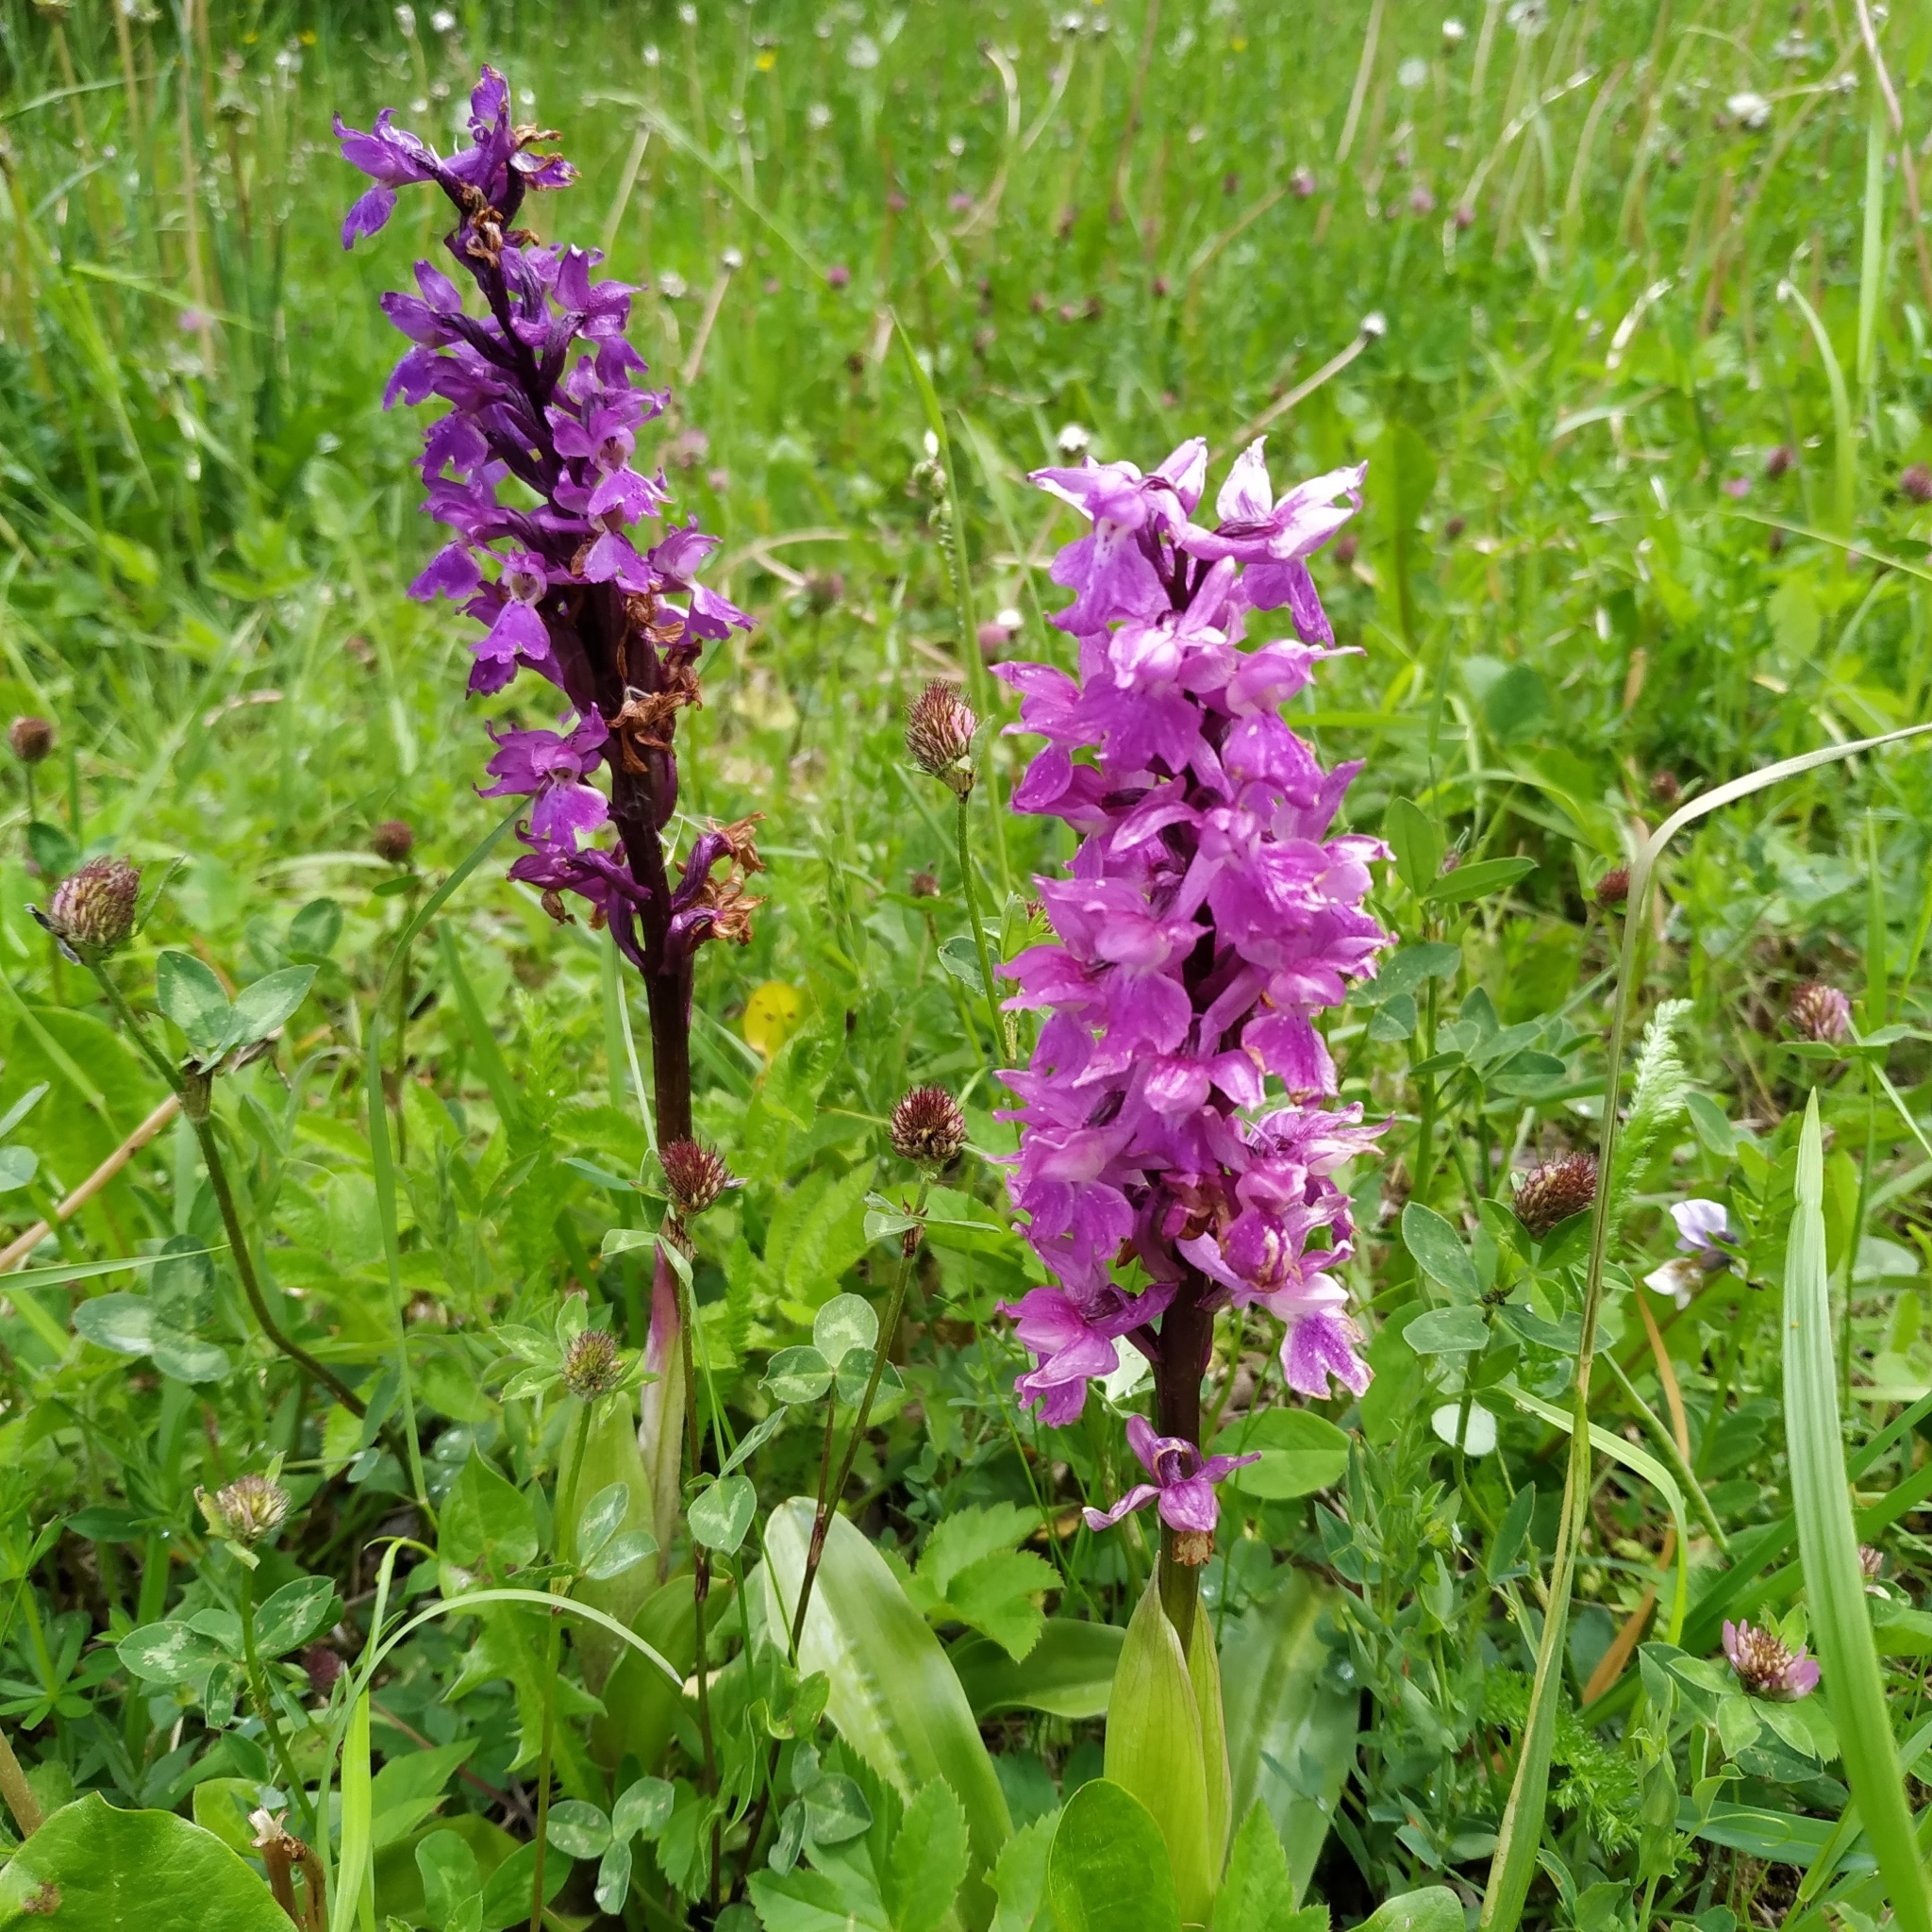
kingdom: Plantae
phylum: Tracheophyta
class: Liliopsida
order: Asparagales
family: Orchidaceae
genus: Orchis
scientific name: Orchis mascula
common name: Early-purple orchid
